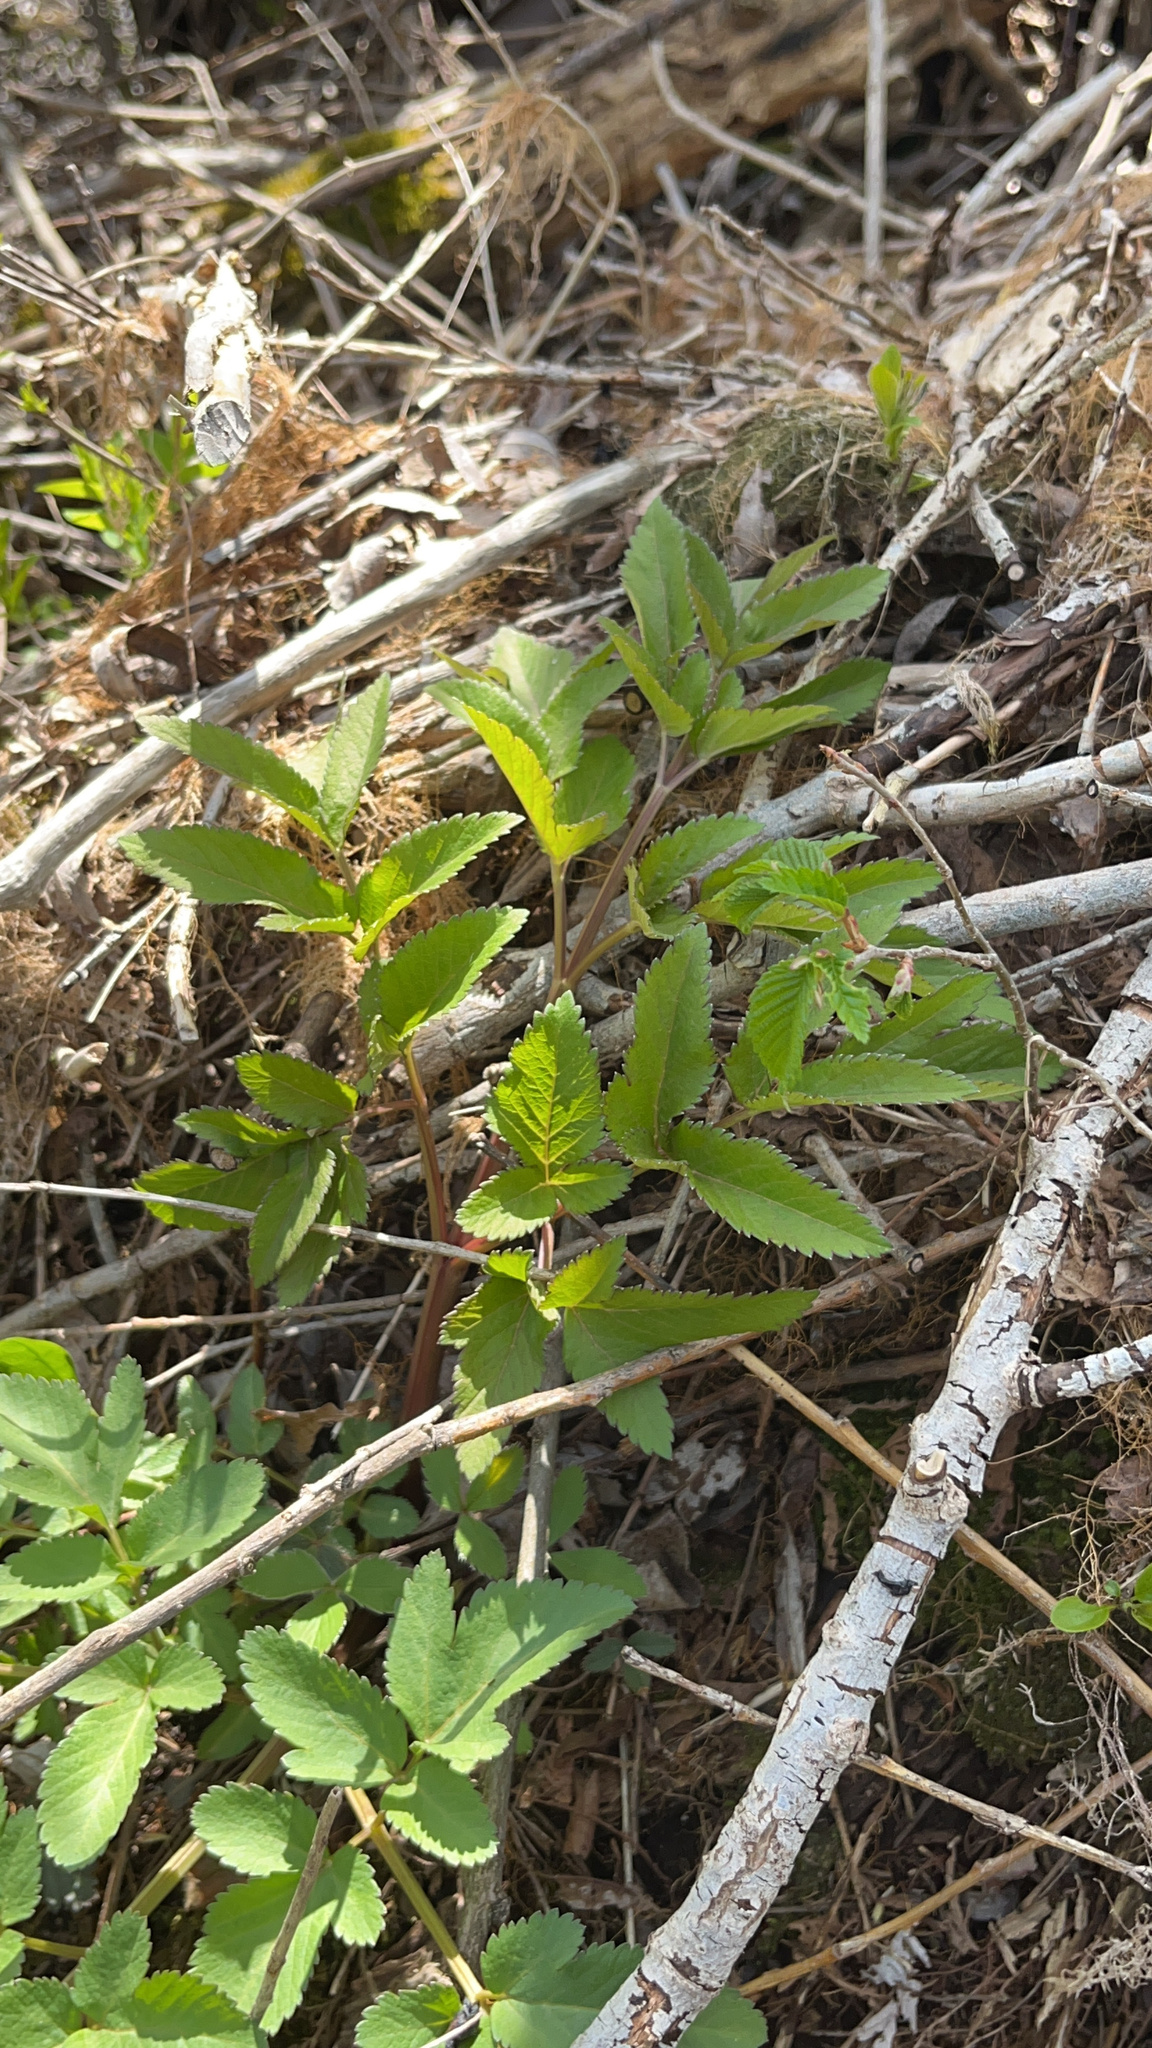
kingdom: Plantae
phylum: Tracheophyta
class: Magnoliopsida
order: Apiales
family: Apiaceae
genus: Angelica
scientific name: Angelica atropurpurea
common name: Great angelica
